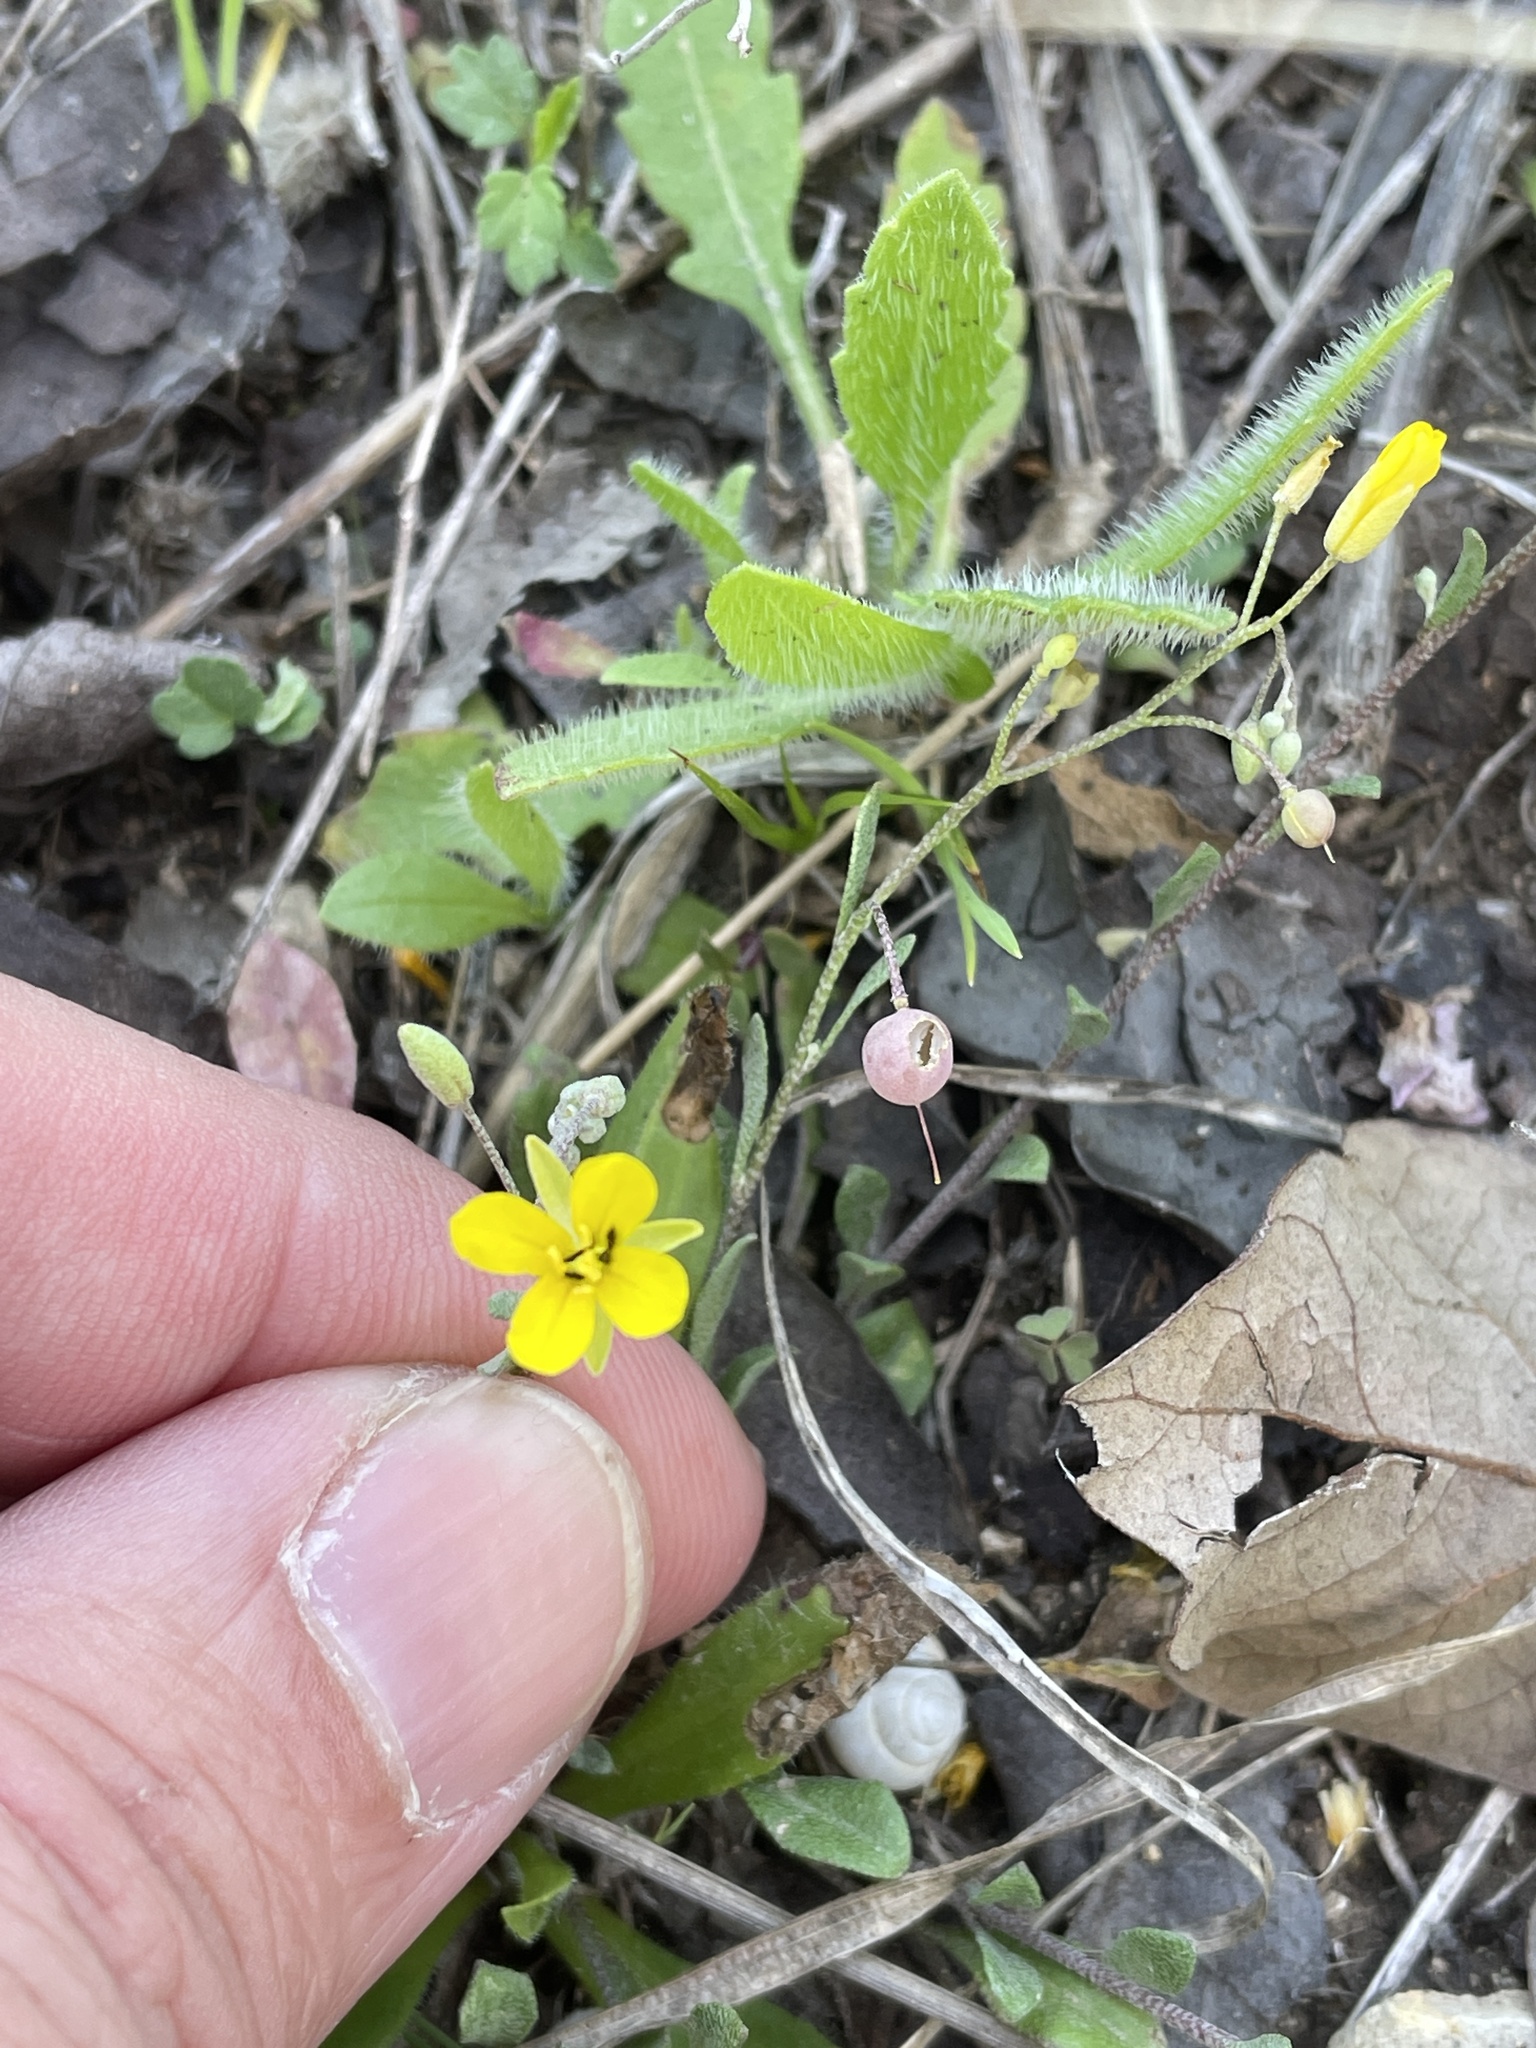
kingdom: Plantae
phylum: Tracheophyta
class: Magnoliopsida
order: Brassicales
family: Brassicaceae
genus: Physaria
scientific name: Physaria recurvata
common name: Gaslight bladderpod
